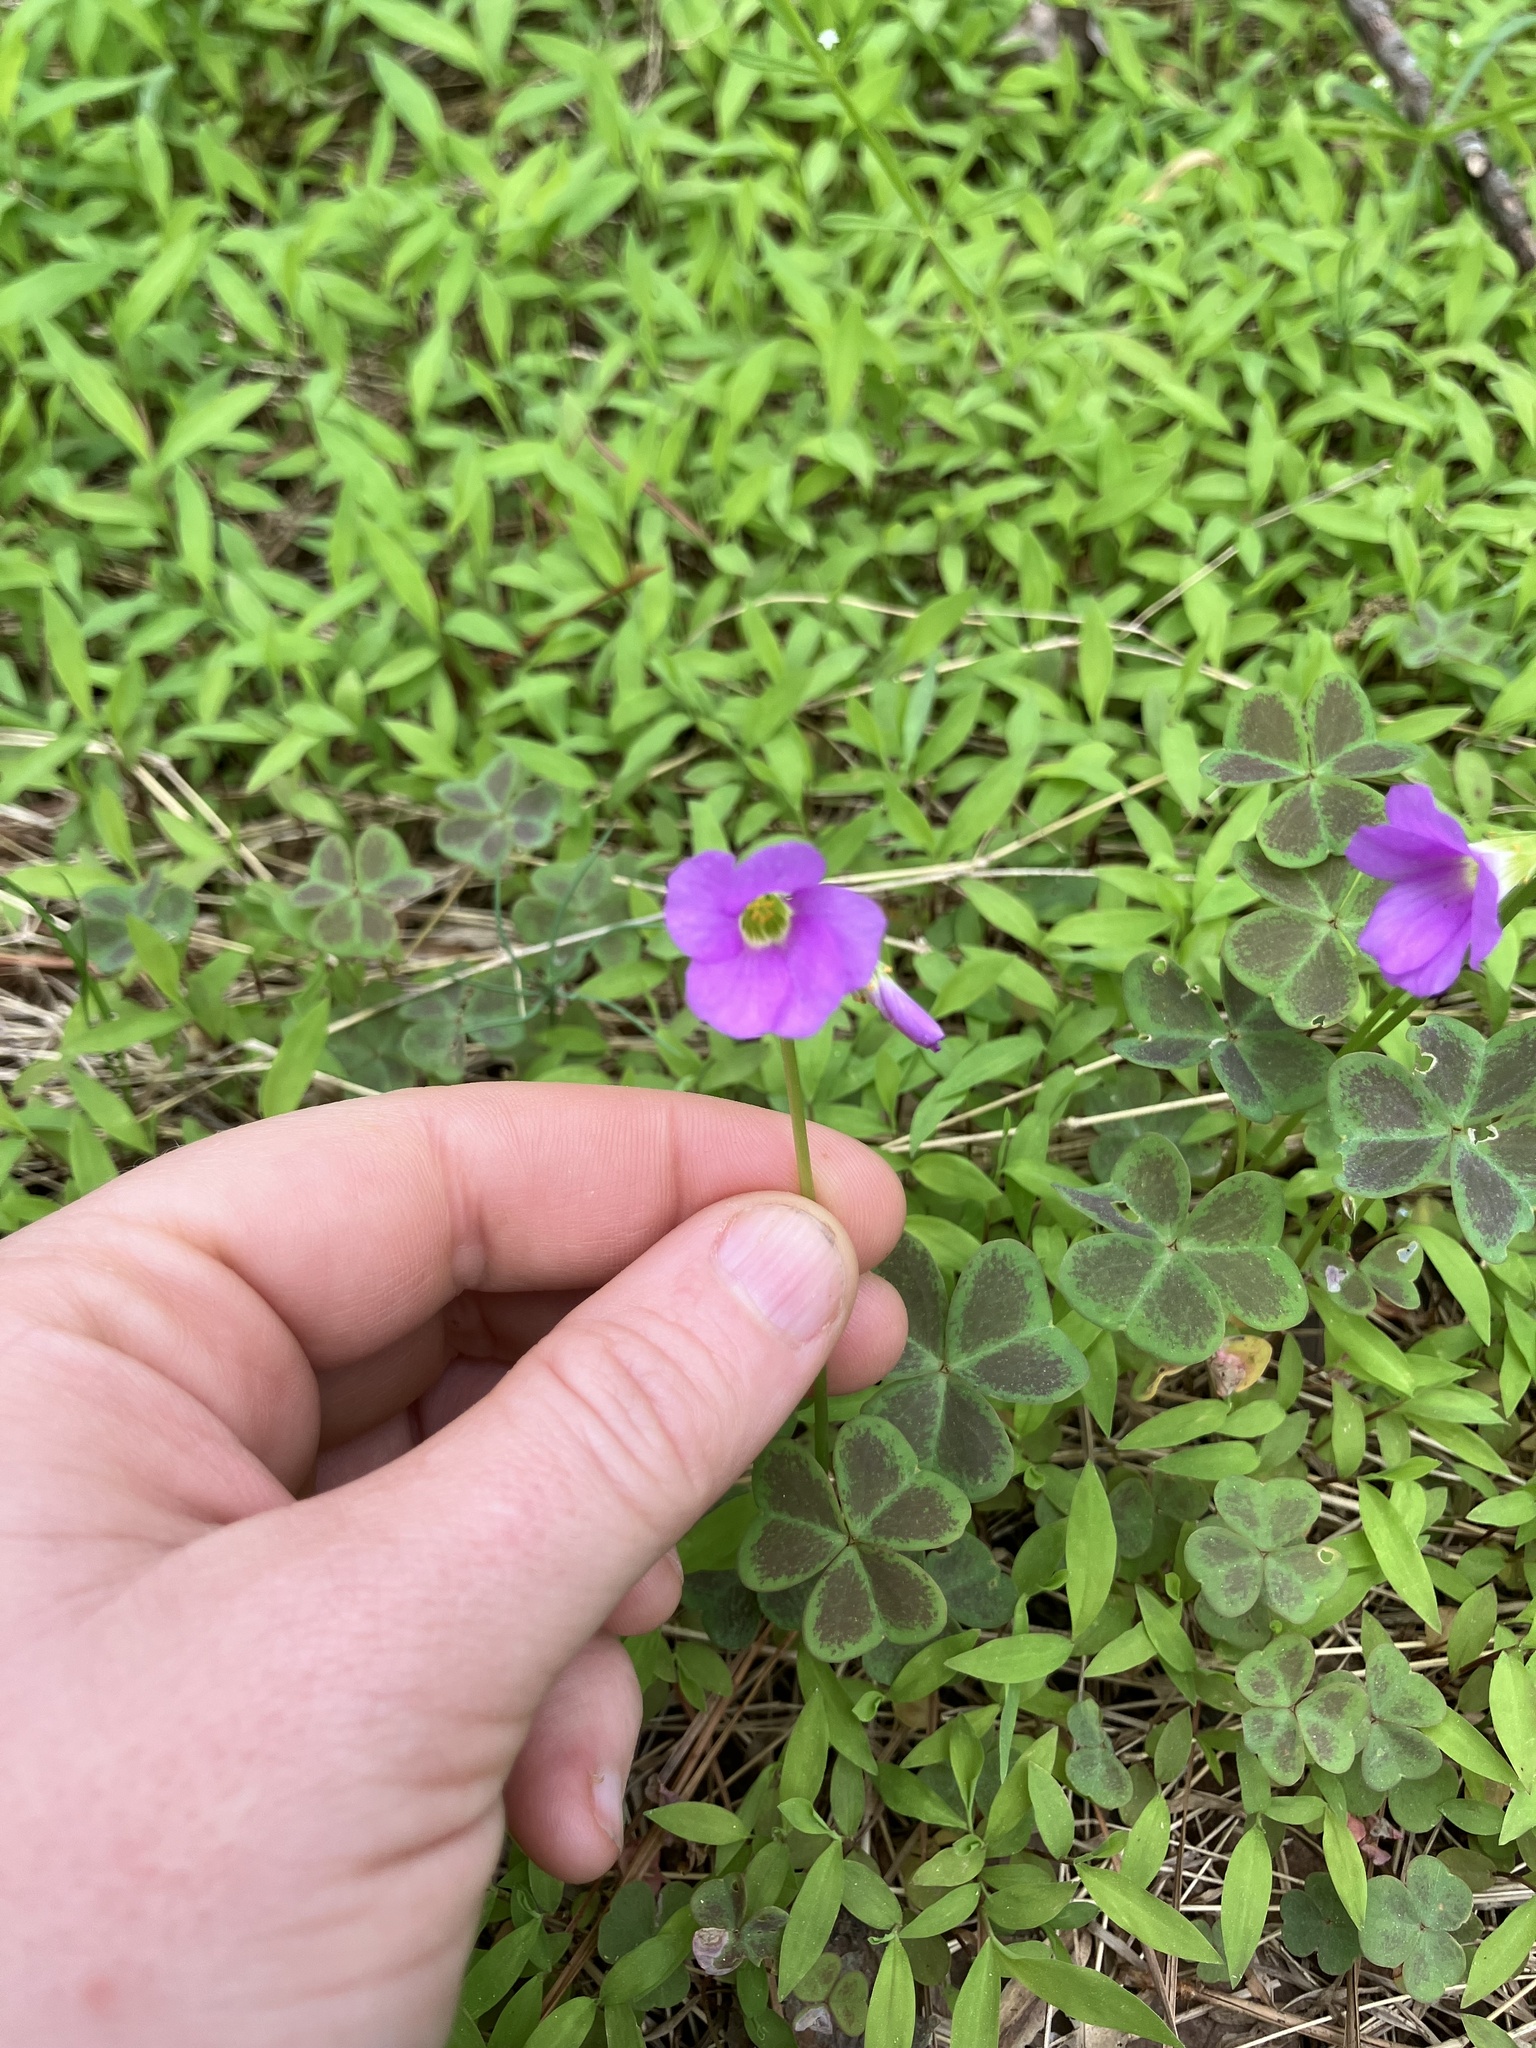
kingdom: Plantae
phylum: Tracheophyta
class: Magnoliopsida
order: Oxalidales
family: Oxalidaceae
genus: Oxalis
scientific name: Oxalis violacea
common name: Violet wood-sorrel
